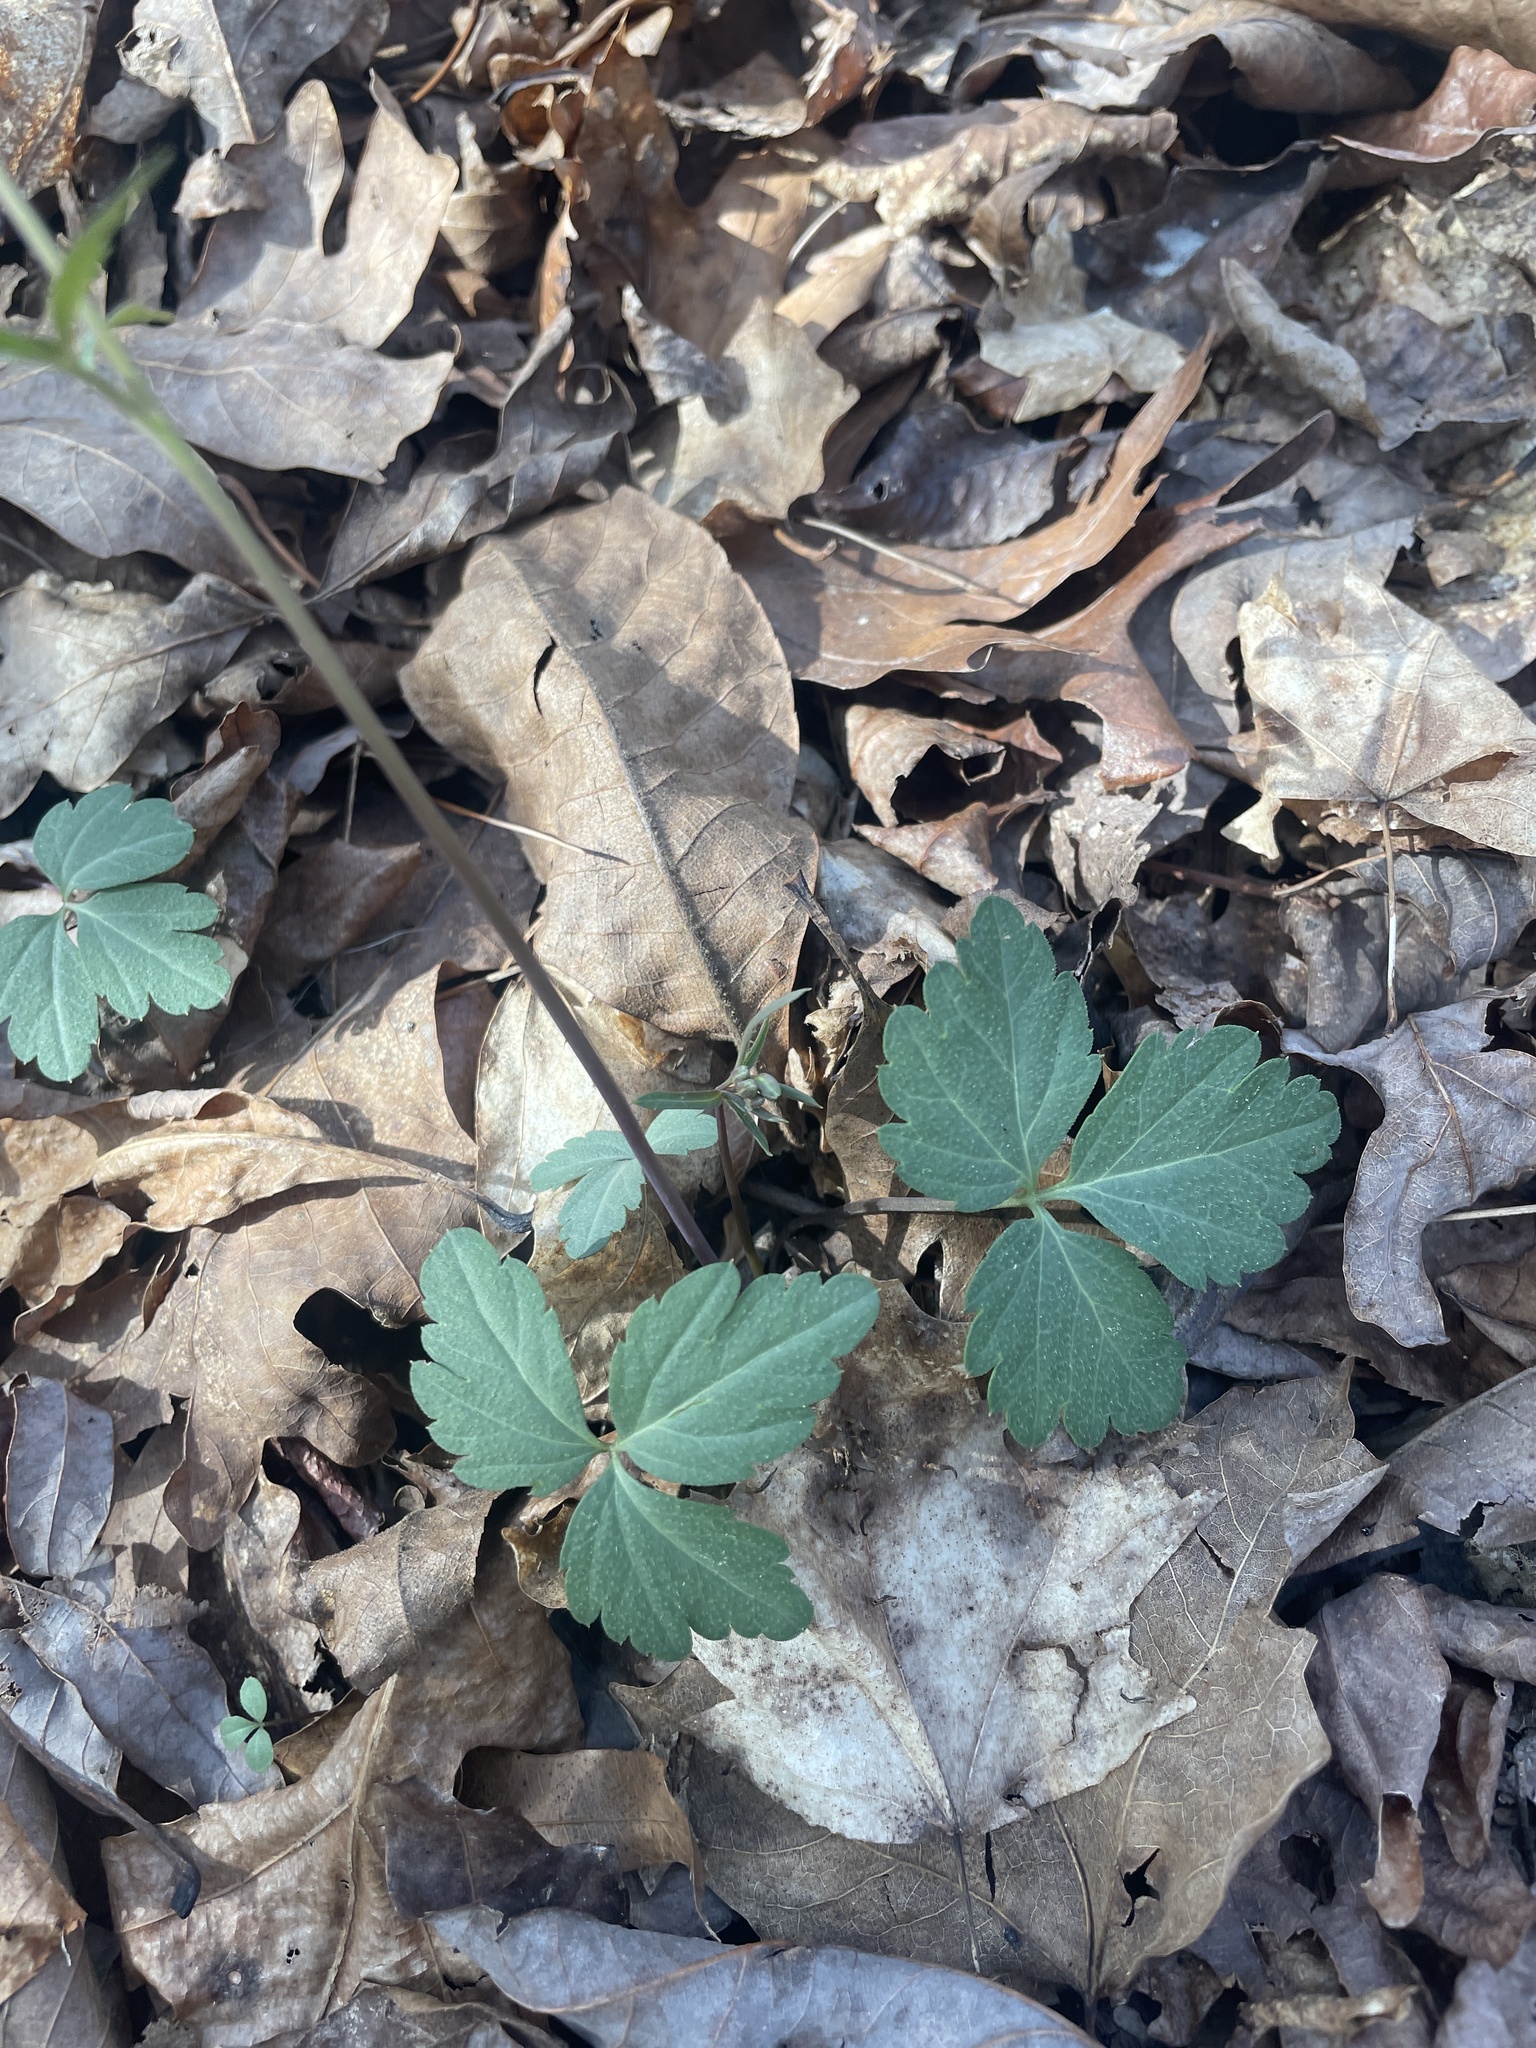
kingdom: Plantae
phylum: Tracheophyta
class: Magnoliopsida
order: Brassicales
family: Brassicaceae
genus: Cardamine
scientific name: Cardamine angustata
